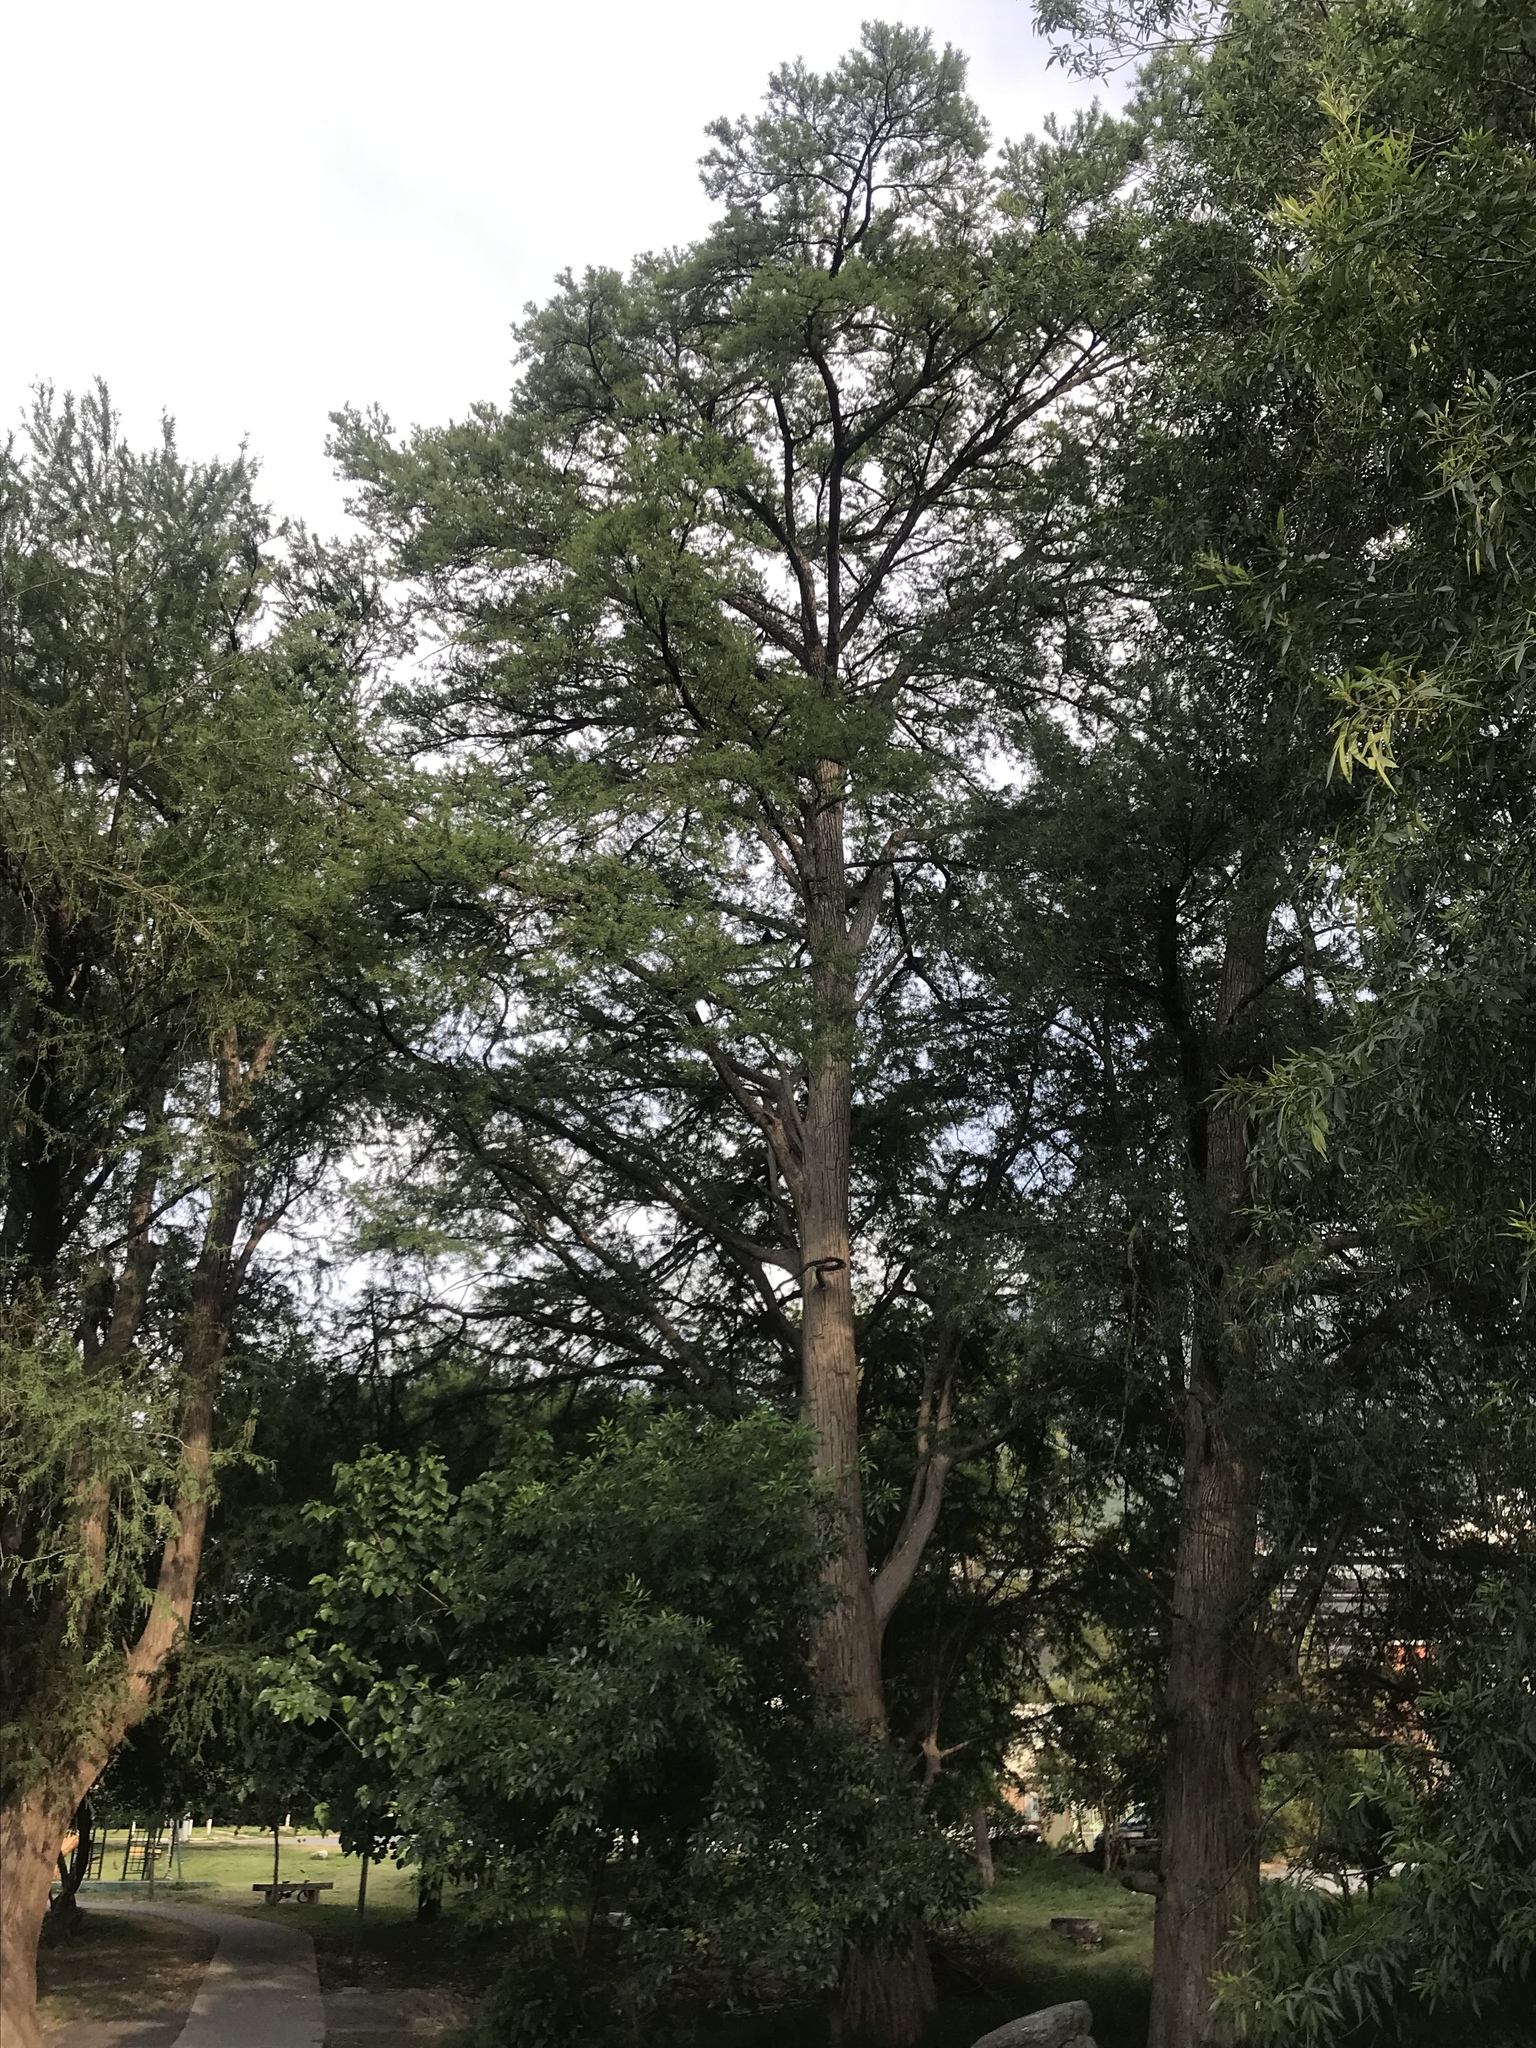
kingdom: Plantae
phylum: Tracheophyta
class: Pinopsida
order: Pinales
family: Cupressaceae
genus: Taxodium
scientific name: Taxodium mucronatum
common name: Montezume bald cypress
